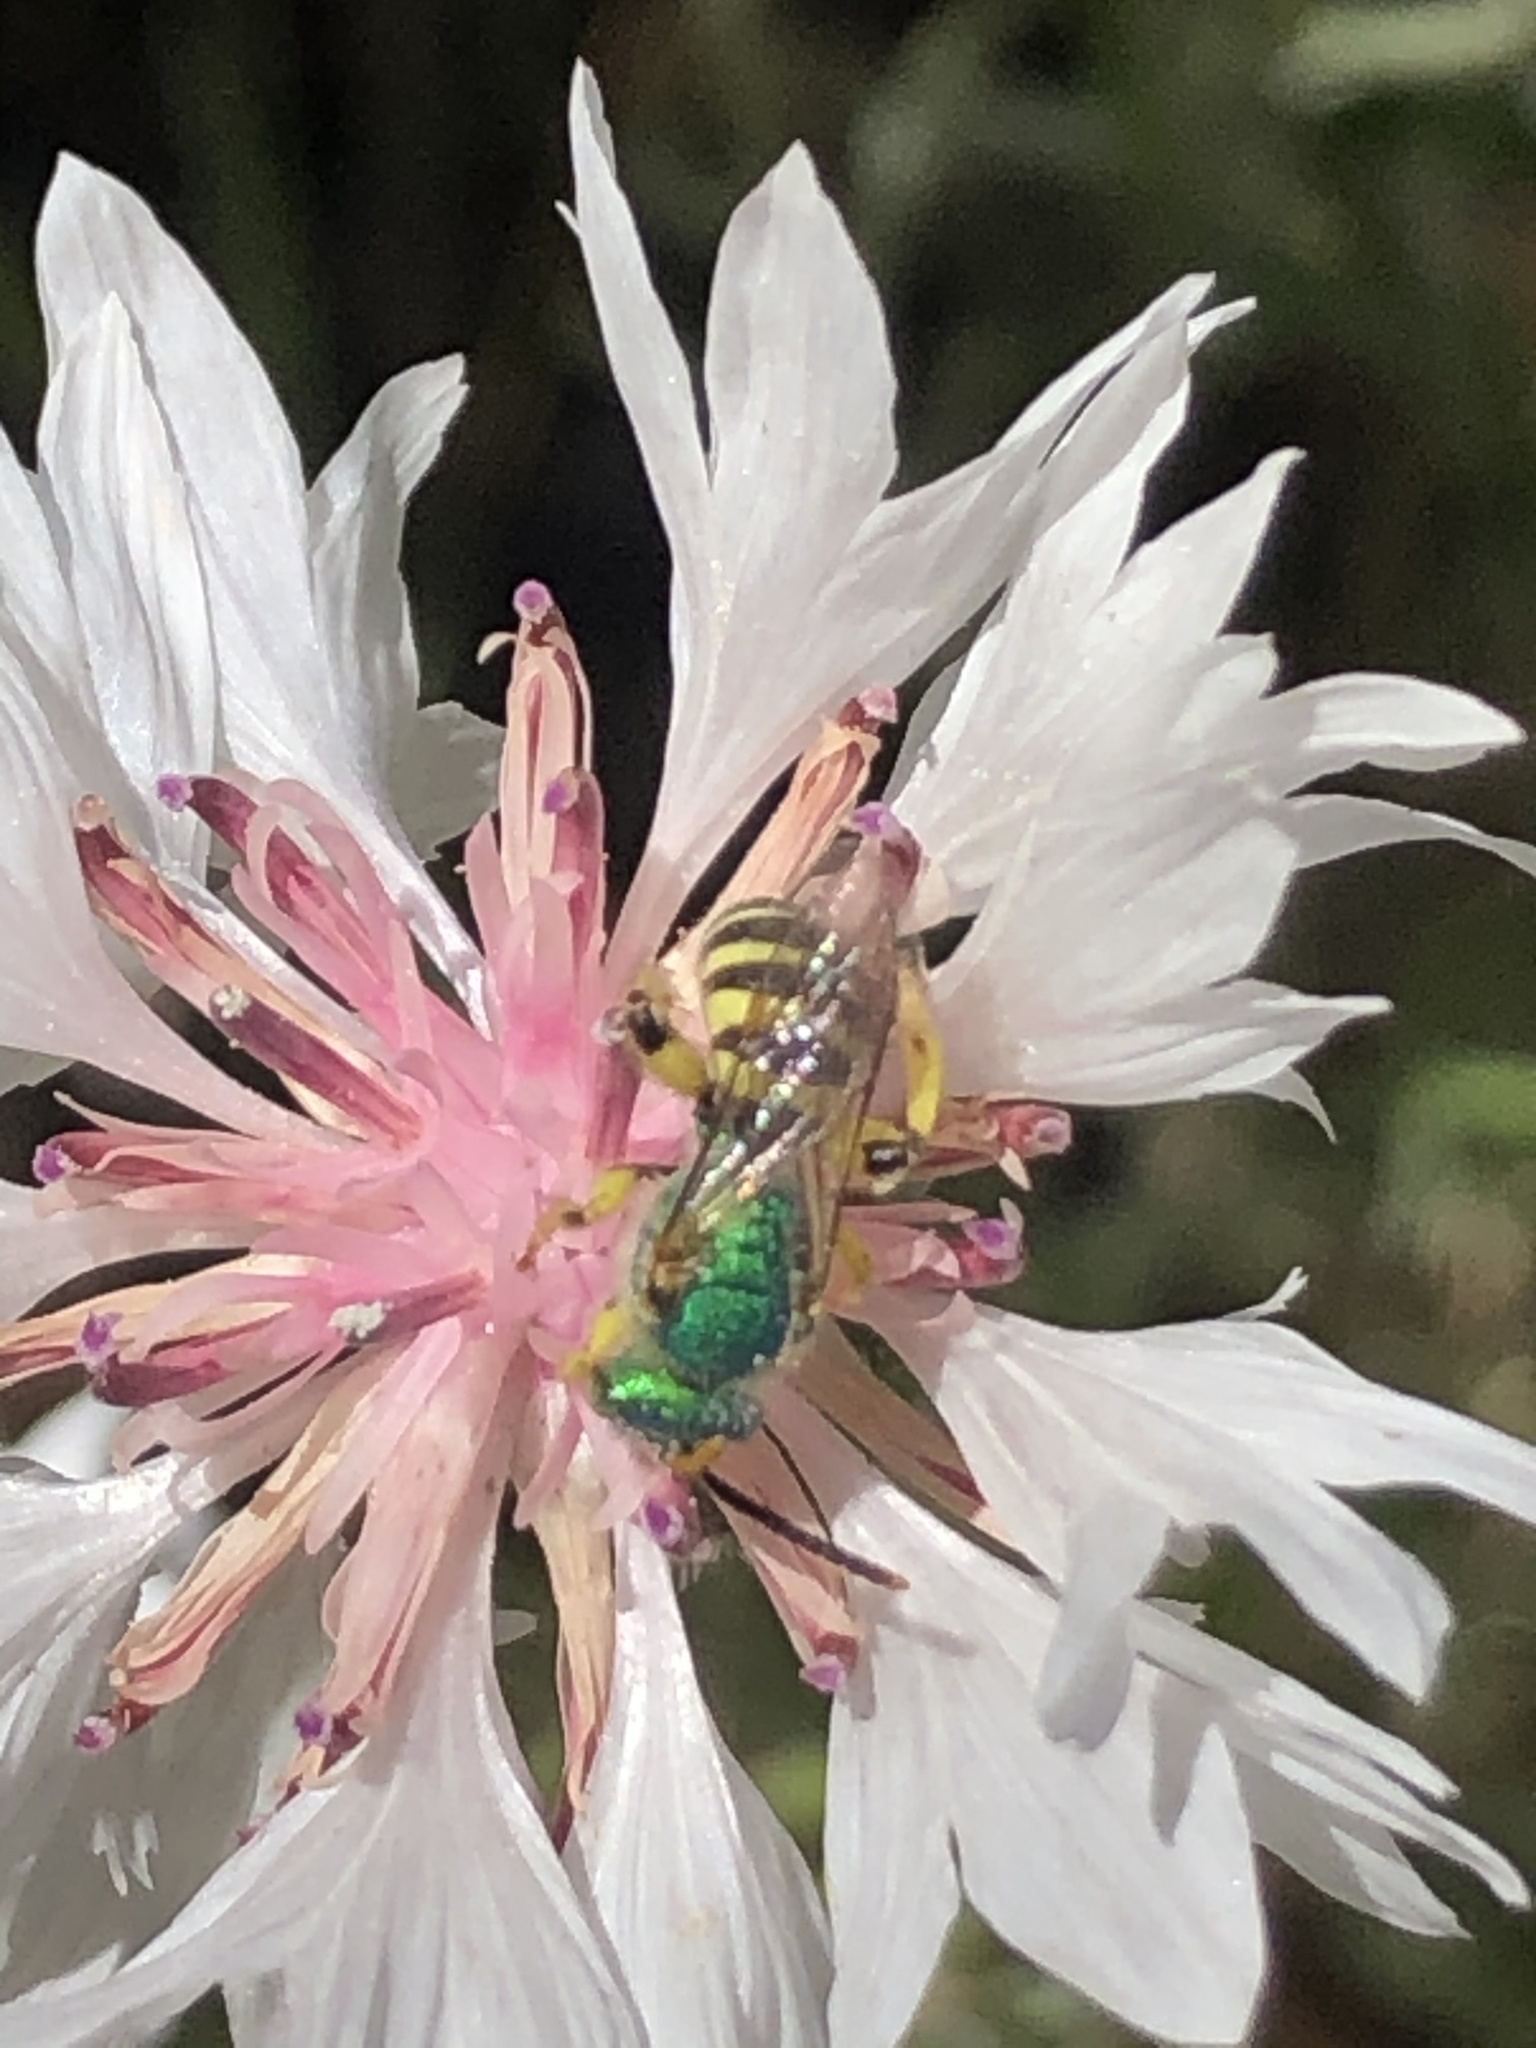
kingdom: Animalia
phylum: Arthropoda
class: Insecta
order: Hymenoptera
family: Halictidae
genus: Agapostemon
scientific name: Agapostemon texanus
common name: Texas striped sweat bee
